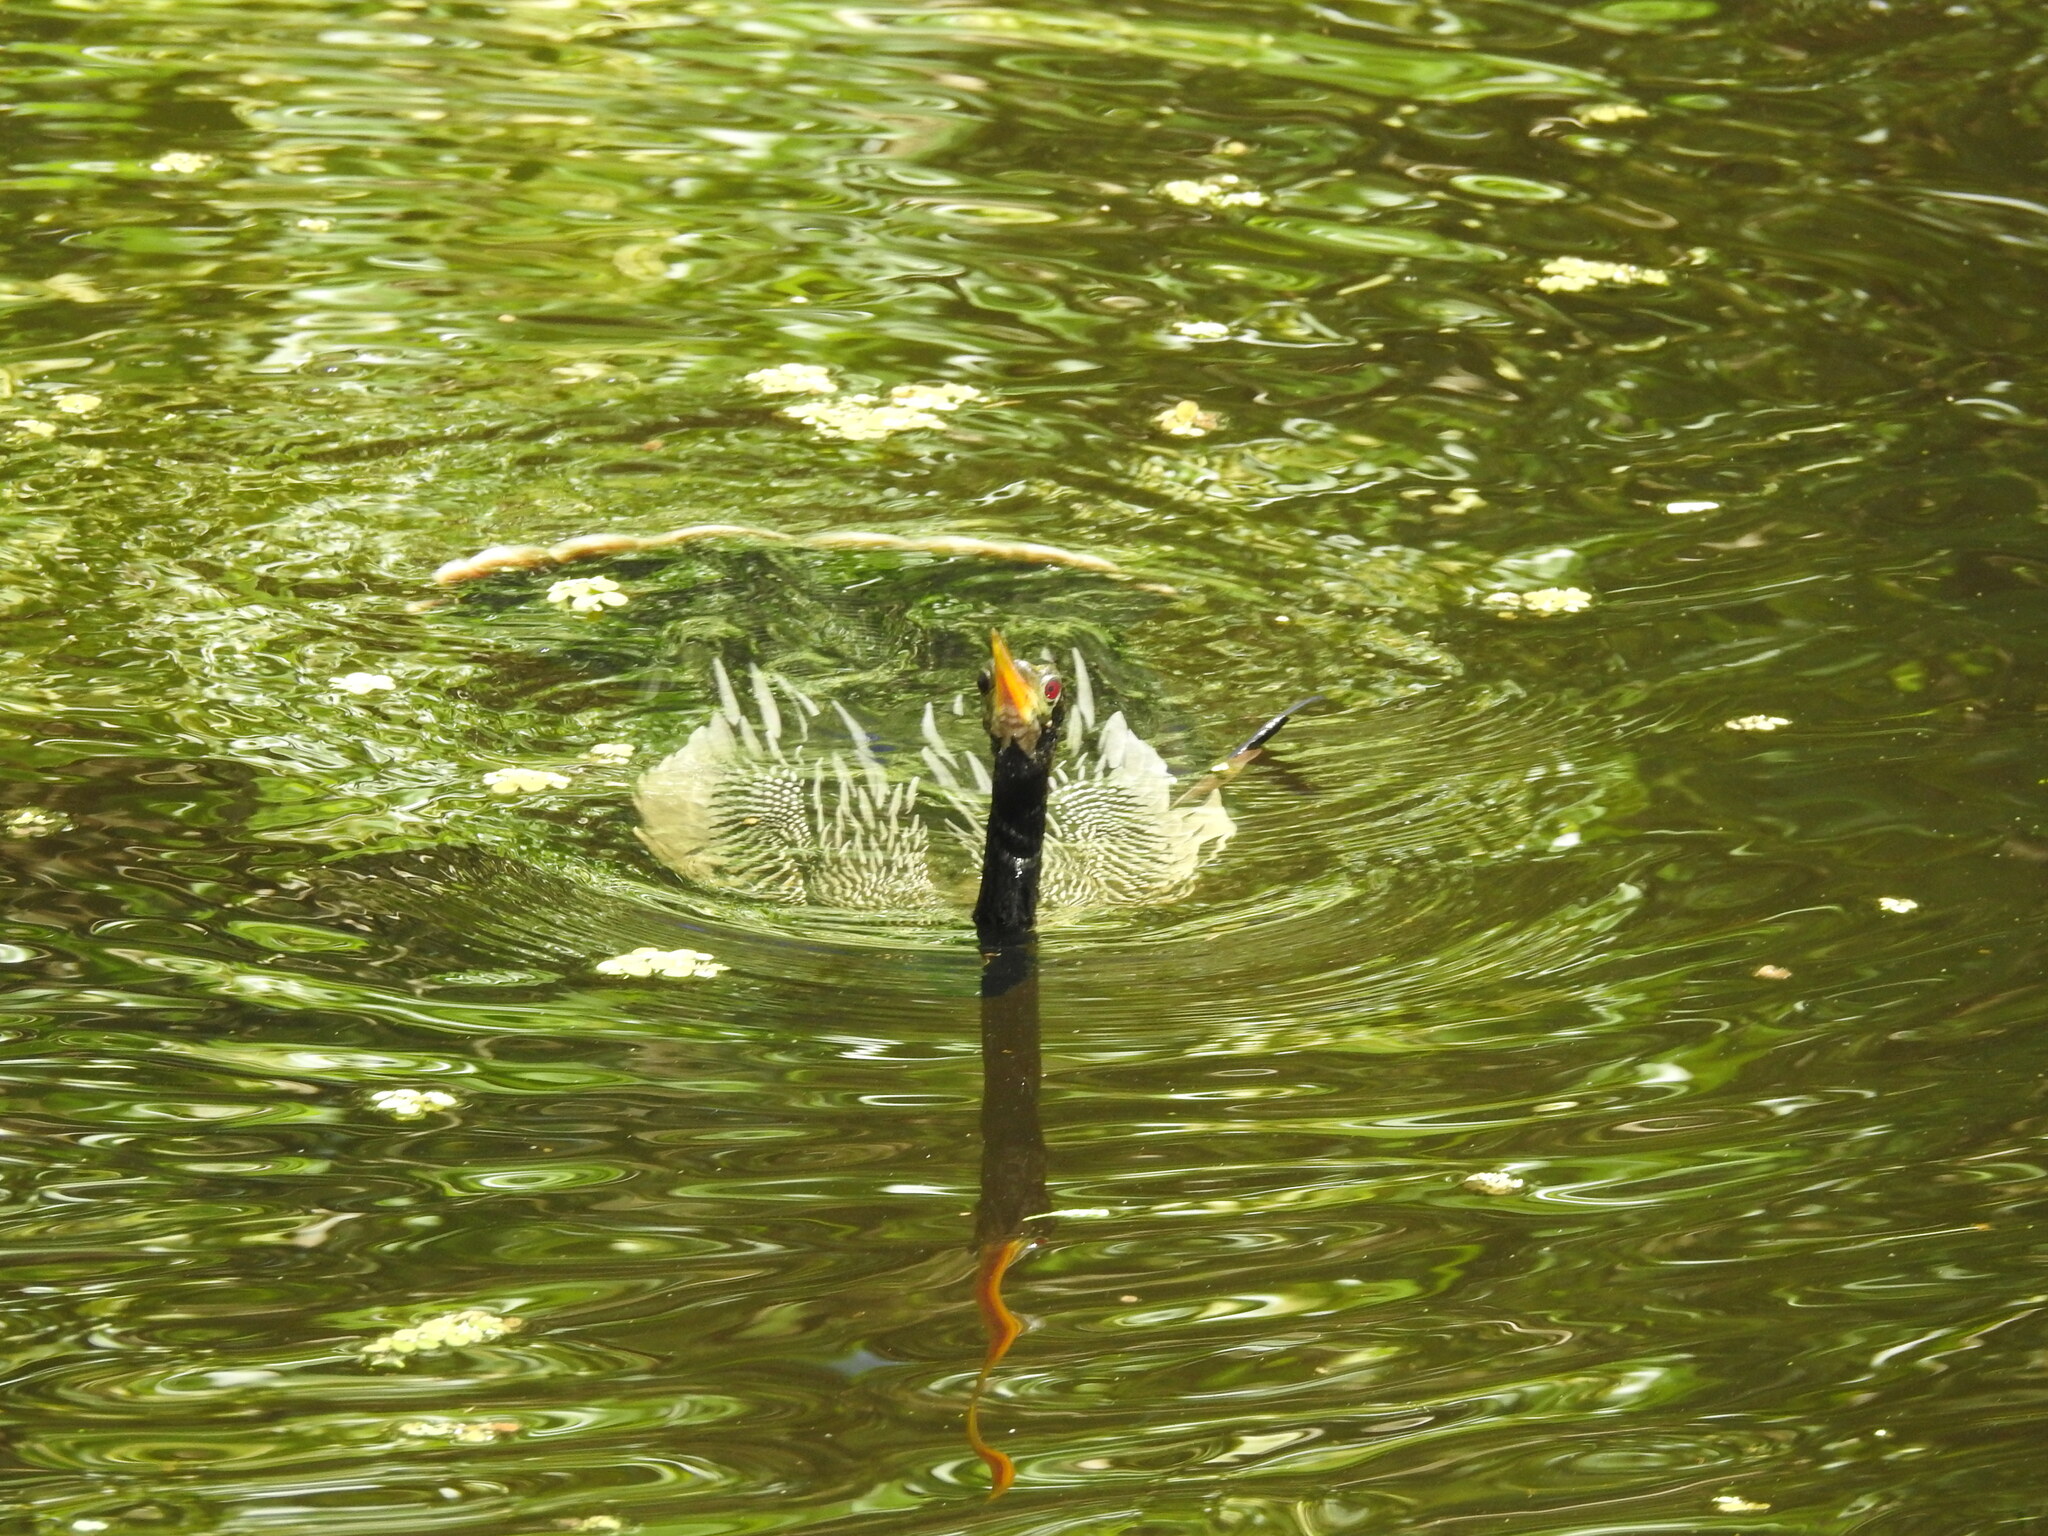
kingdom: Animalia
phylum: Chordata
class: Aves
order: Suliformes
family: Anhingidae
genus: Anhinga
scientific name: Anhinga anhinga
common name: Anhinga
